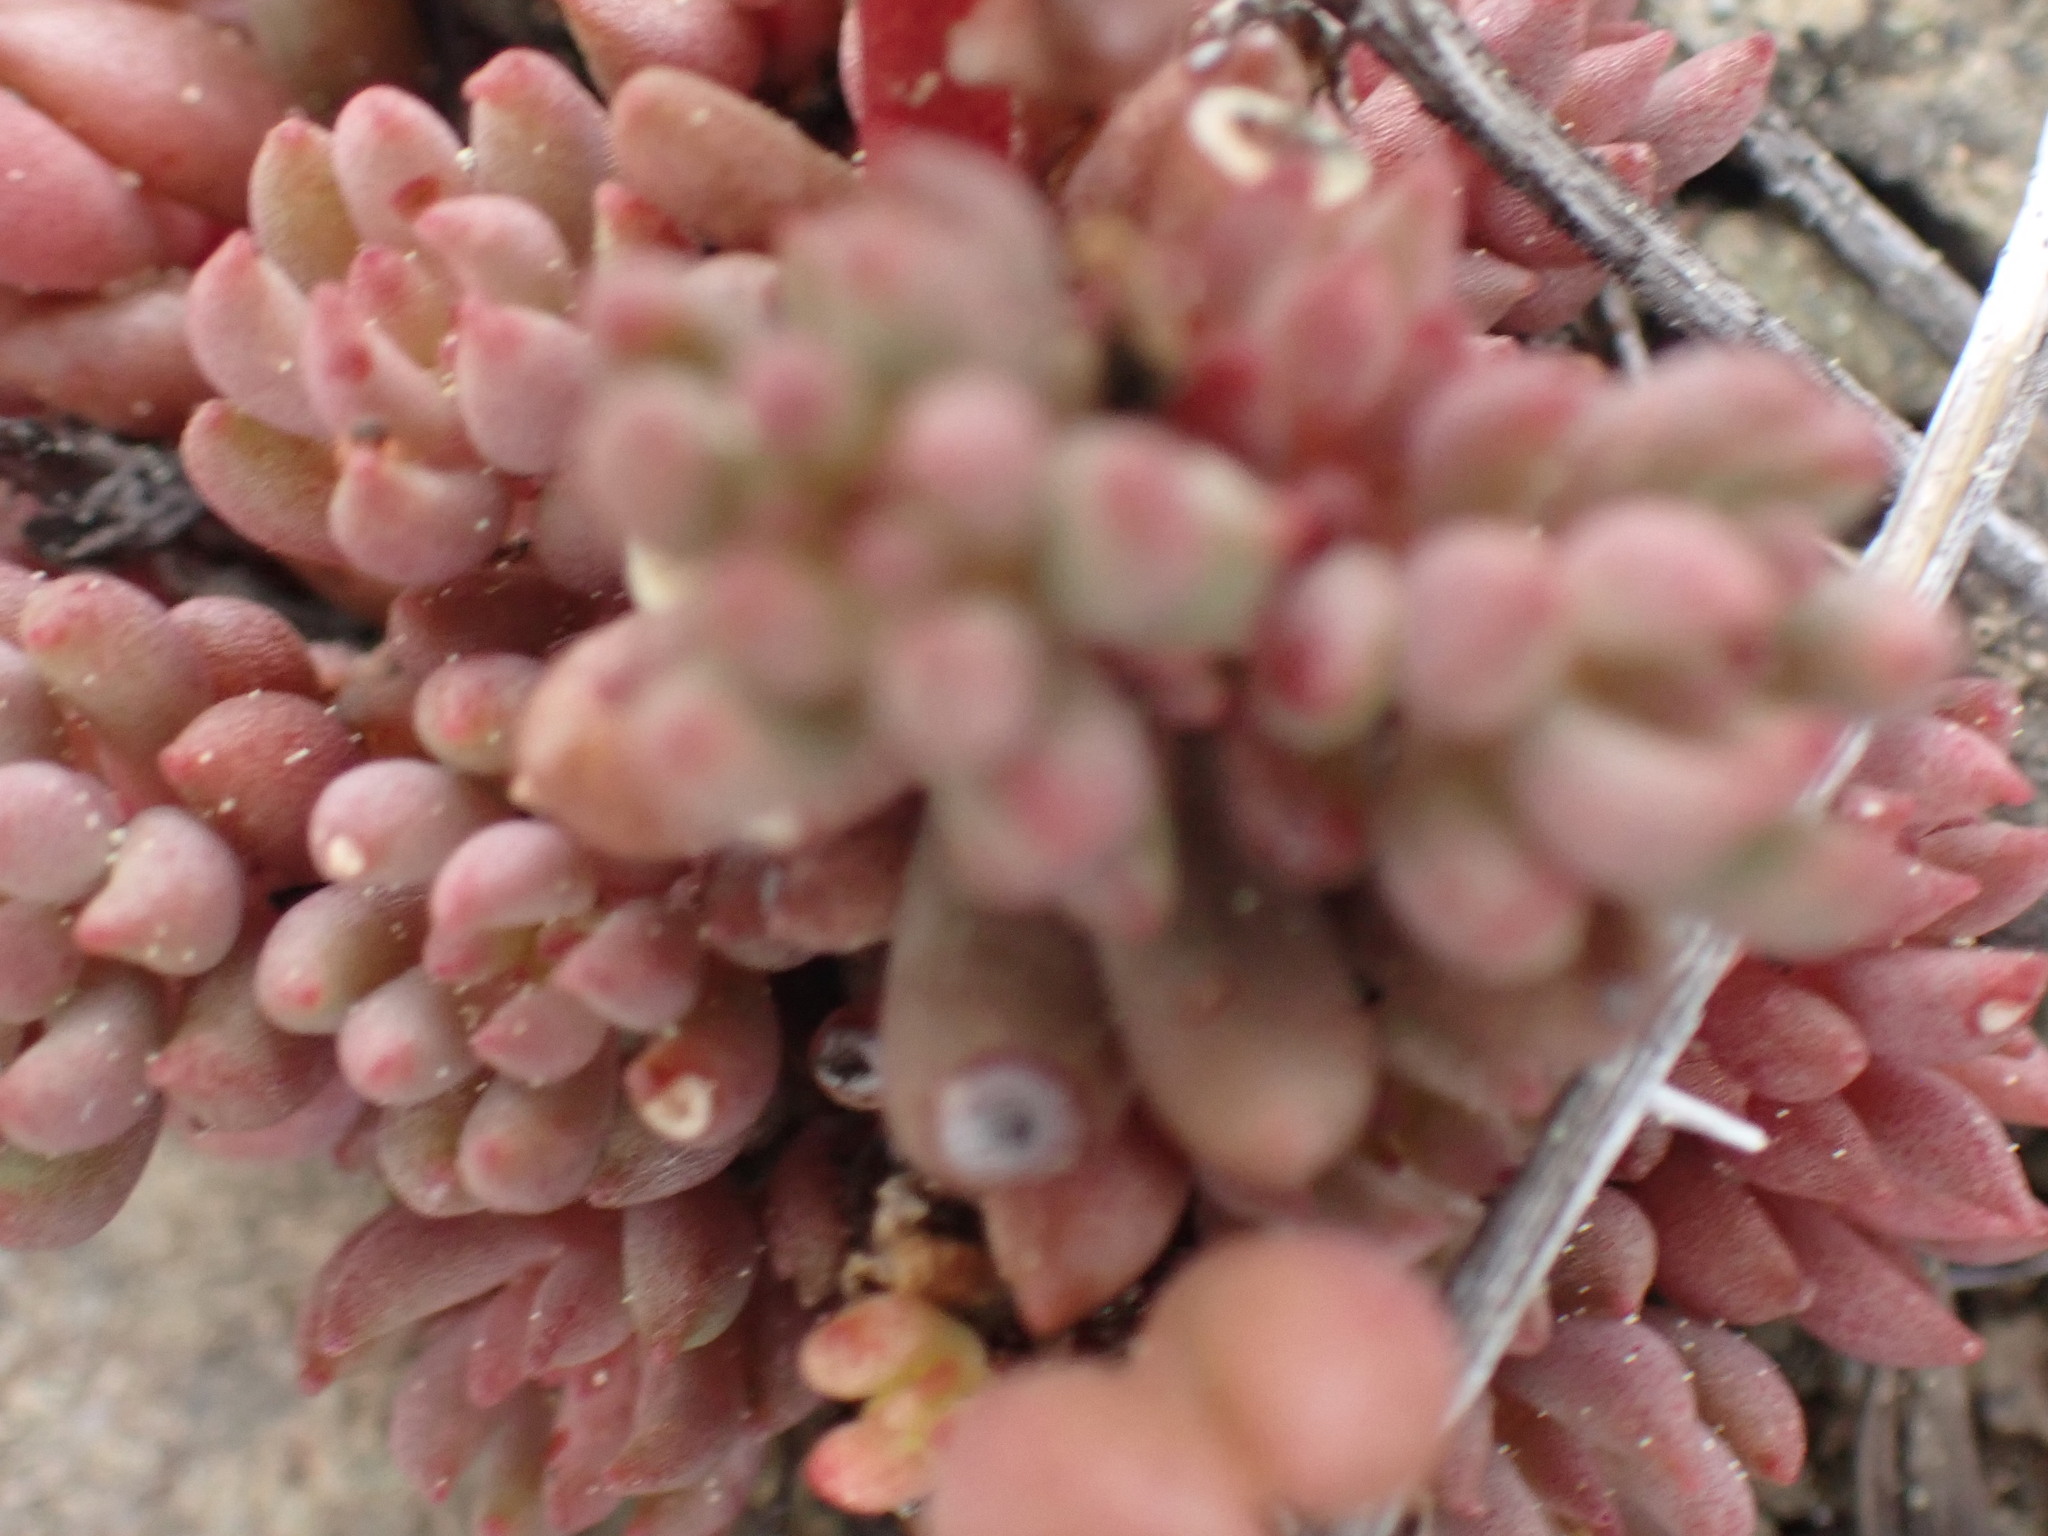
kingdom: Plantae
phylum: Tracheophyta
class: Magnoliopsida
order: Saxifragales
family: Crassulaceae
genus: Sedum
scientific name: Sedum lanceolatum
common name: Common stonecrop
